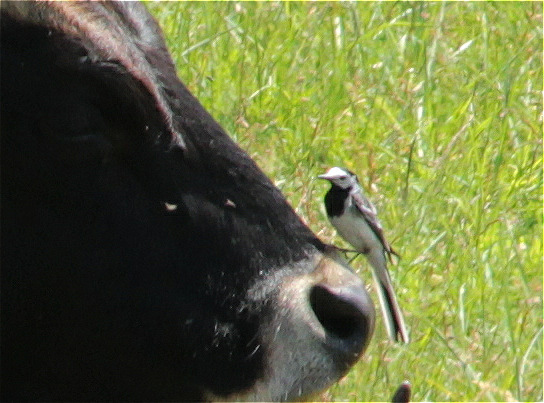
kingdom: Animalia
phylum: Chordata
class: Aves
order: Passeriformes
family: Motacillidae
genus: Motacilla
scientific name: Motacilla alba
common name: White wagtail
